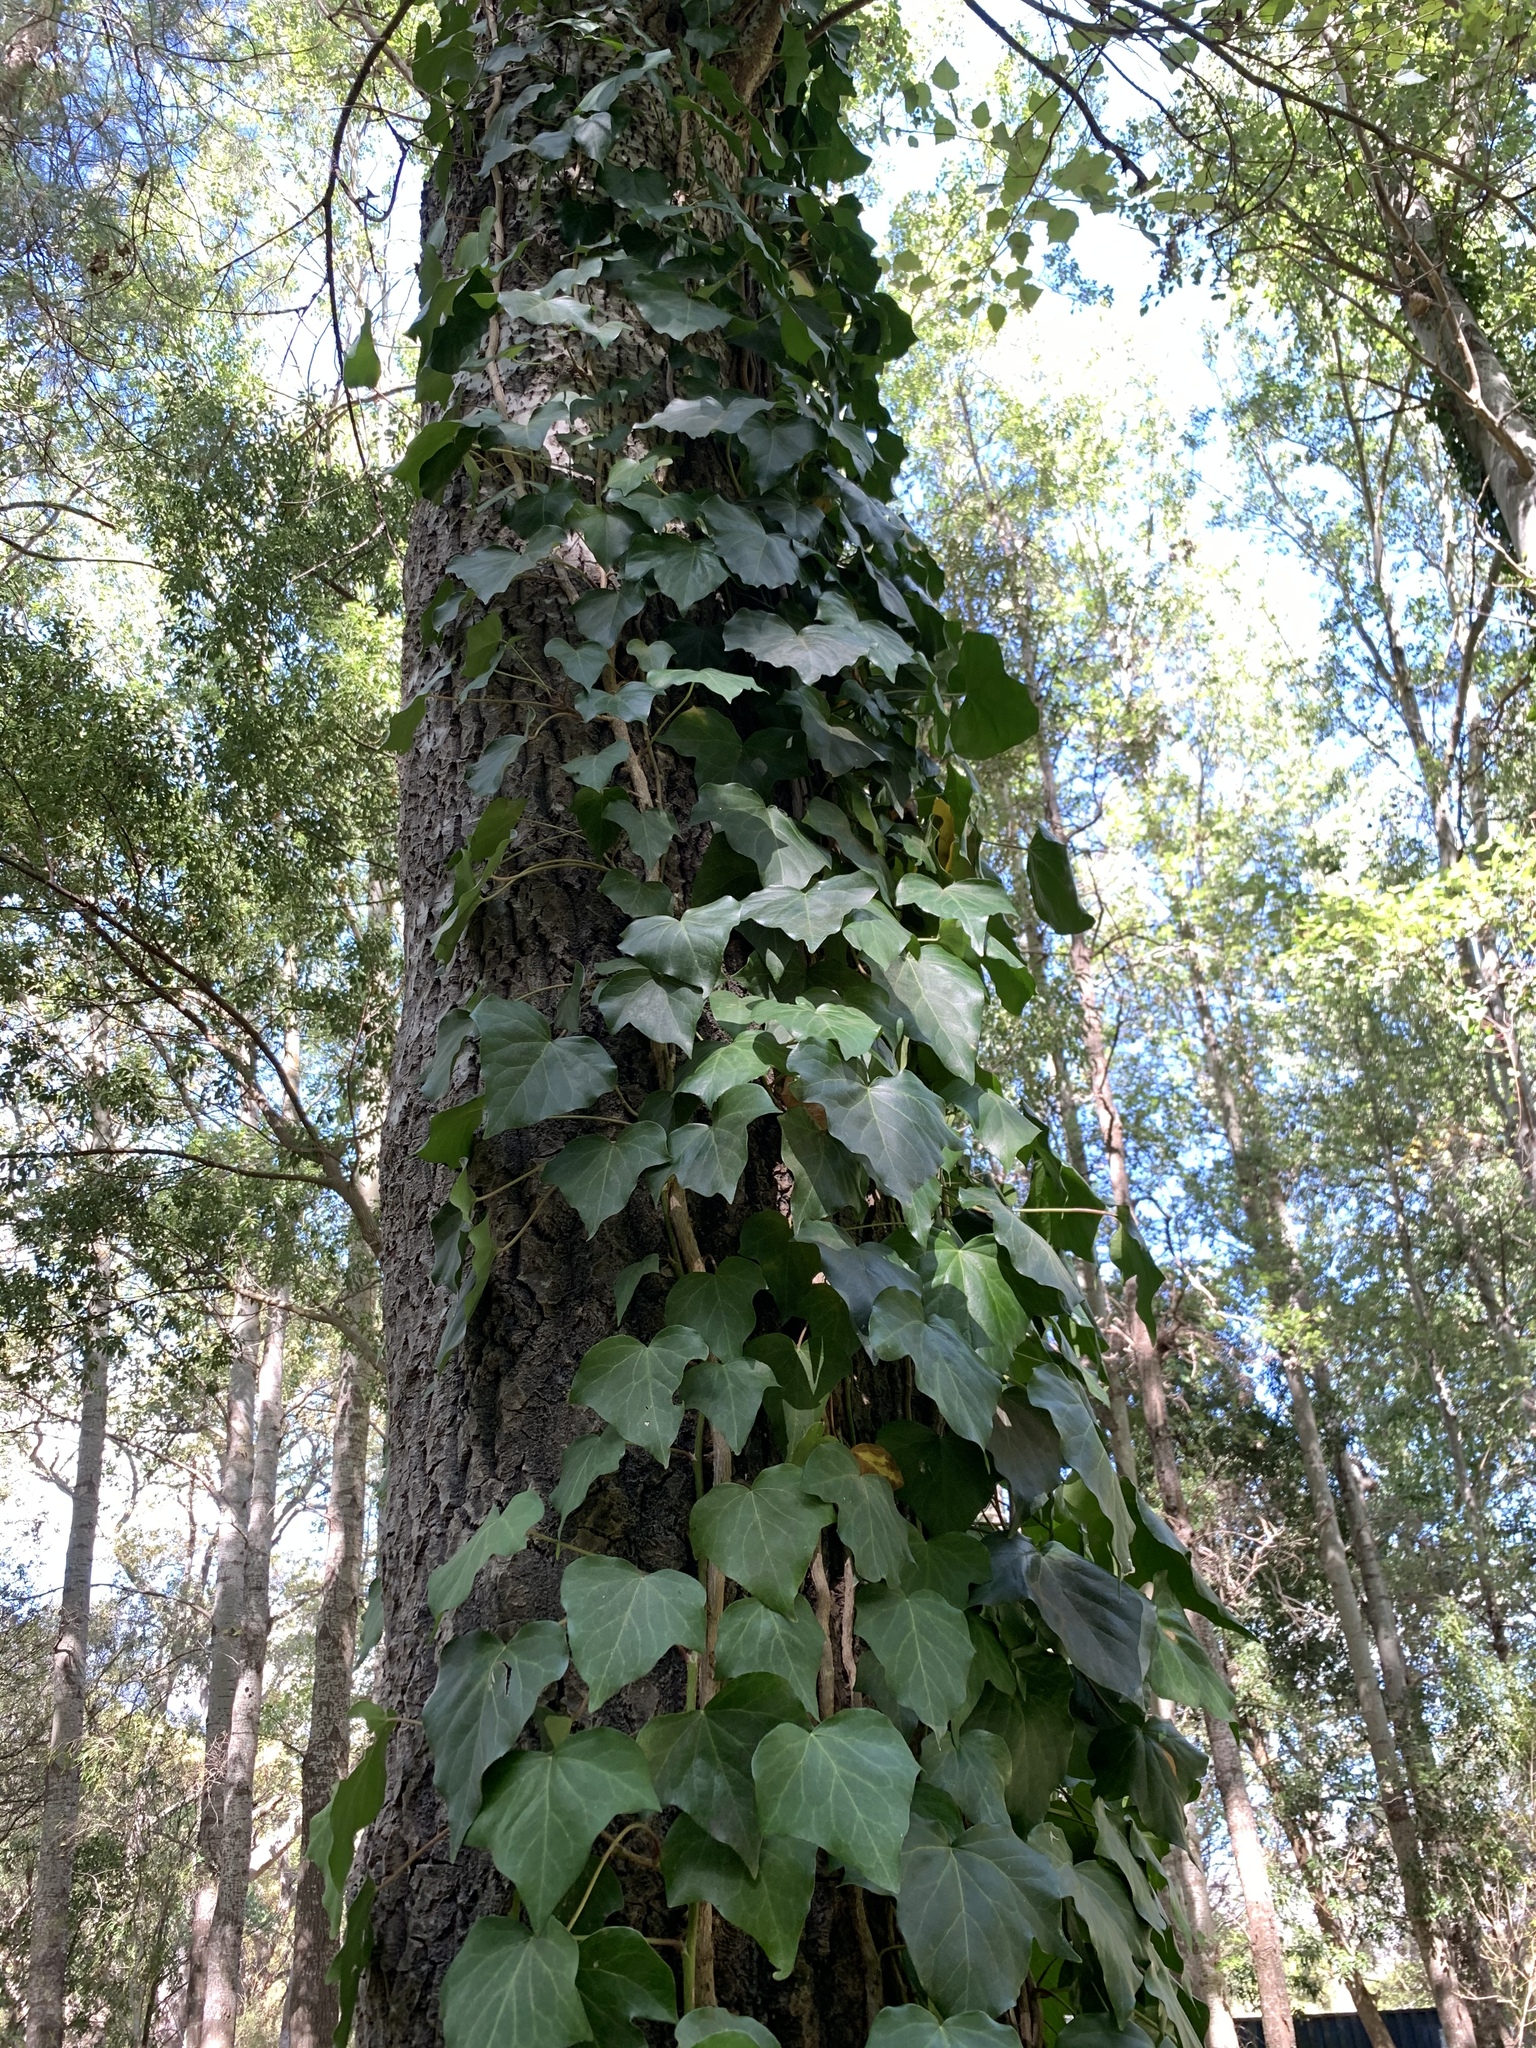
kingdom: Plantae
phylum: Tracheophyta
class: Magnoliopsida
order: Apiales
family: Araliaceae
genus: Hedera
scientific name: Hedera canariensis
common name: Madeira ivy
